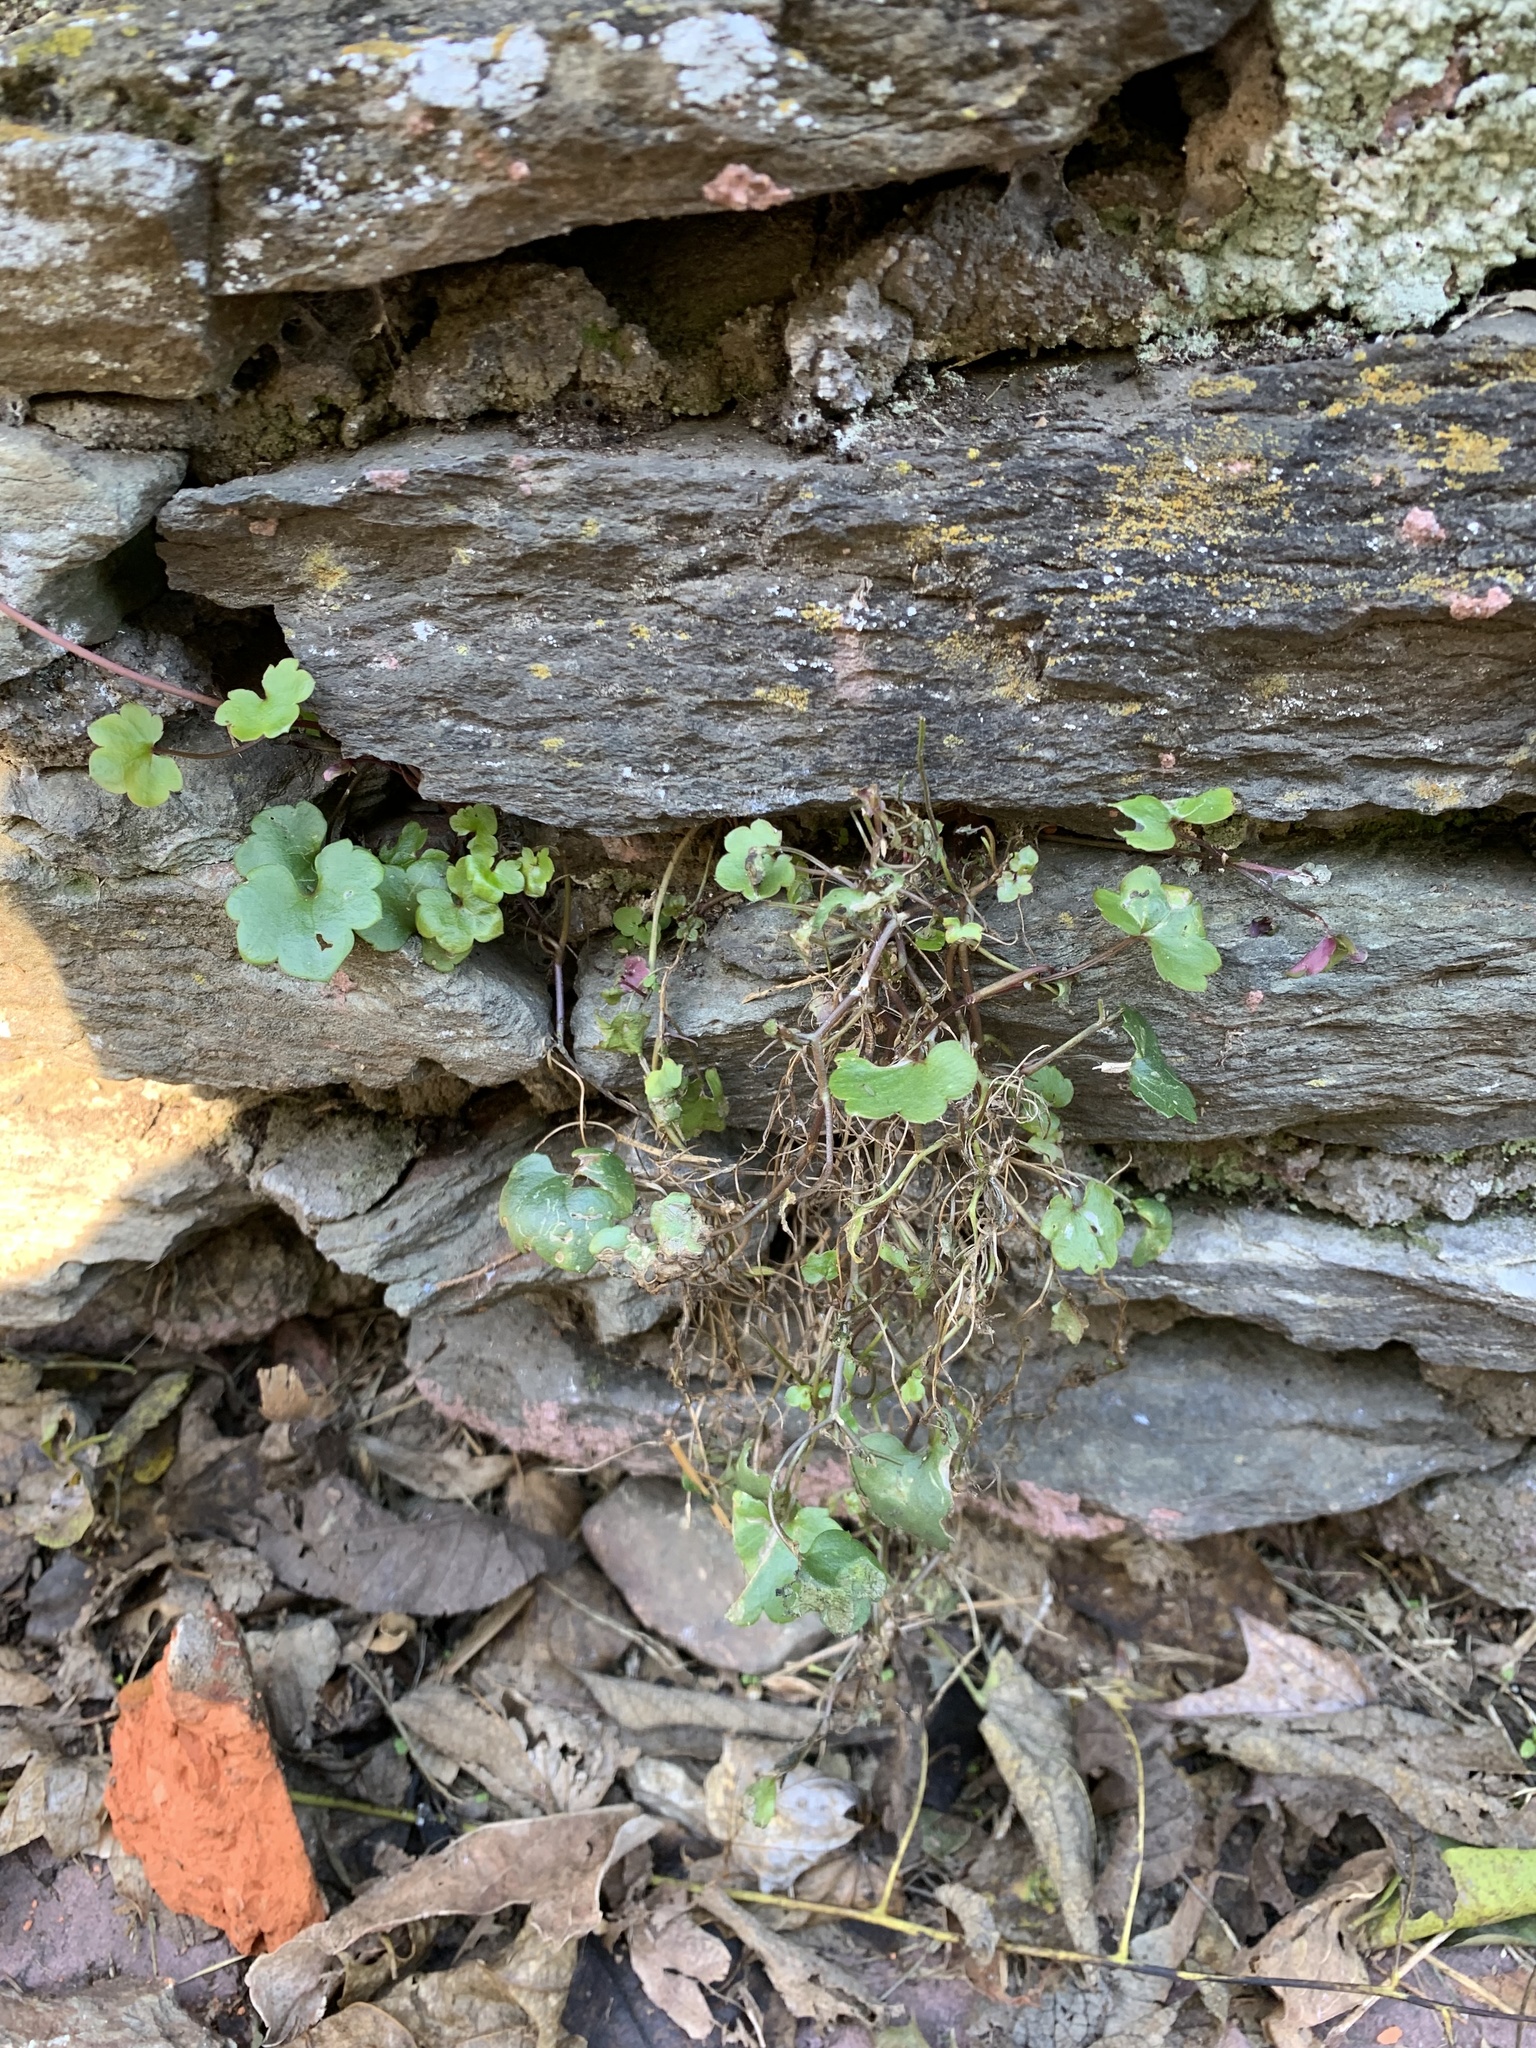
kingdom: Plantae
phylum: Tracheophyta
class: Magnoliopsida
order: Lamiales
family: Plantaginaceae
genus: Cymbalaria
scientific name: Cymbalaria muralis
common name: Ivy-leaved toadflax
